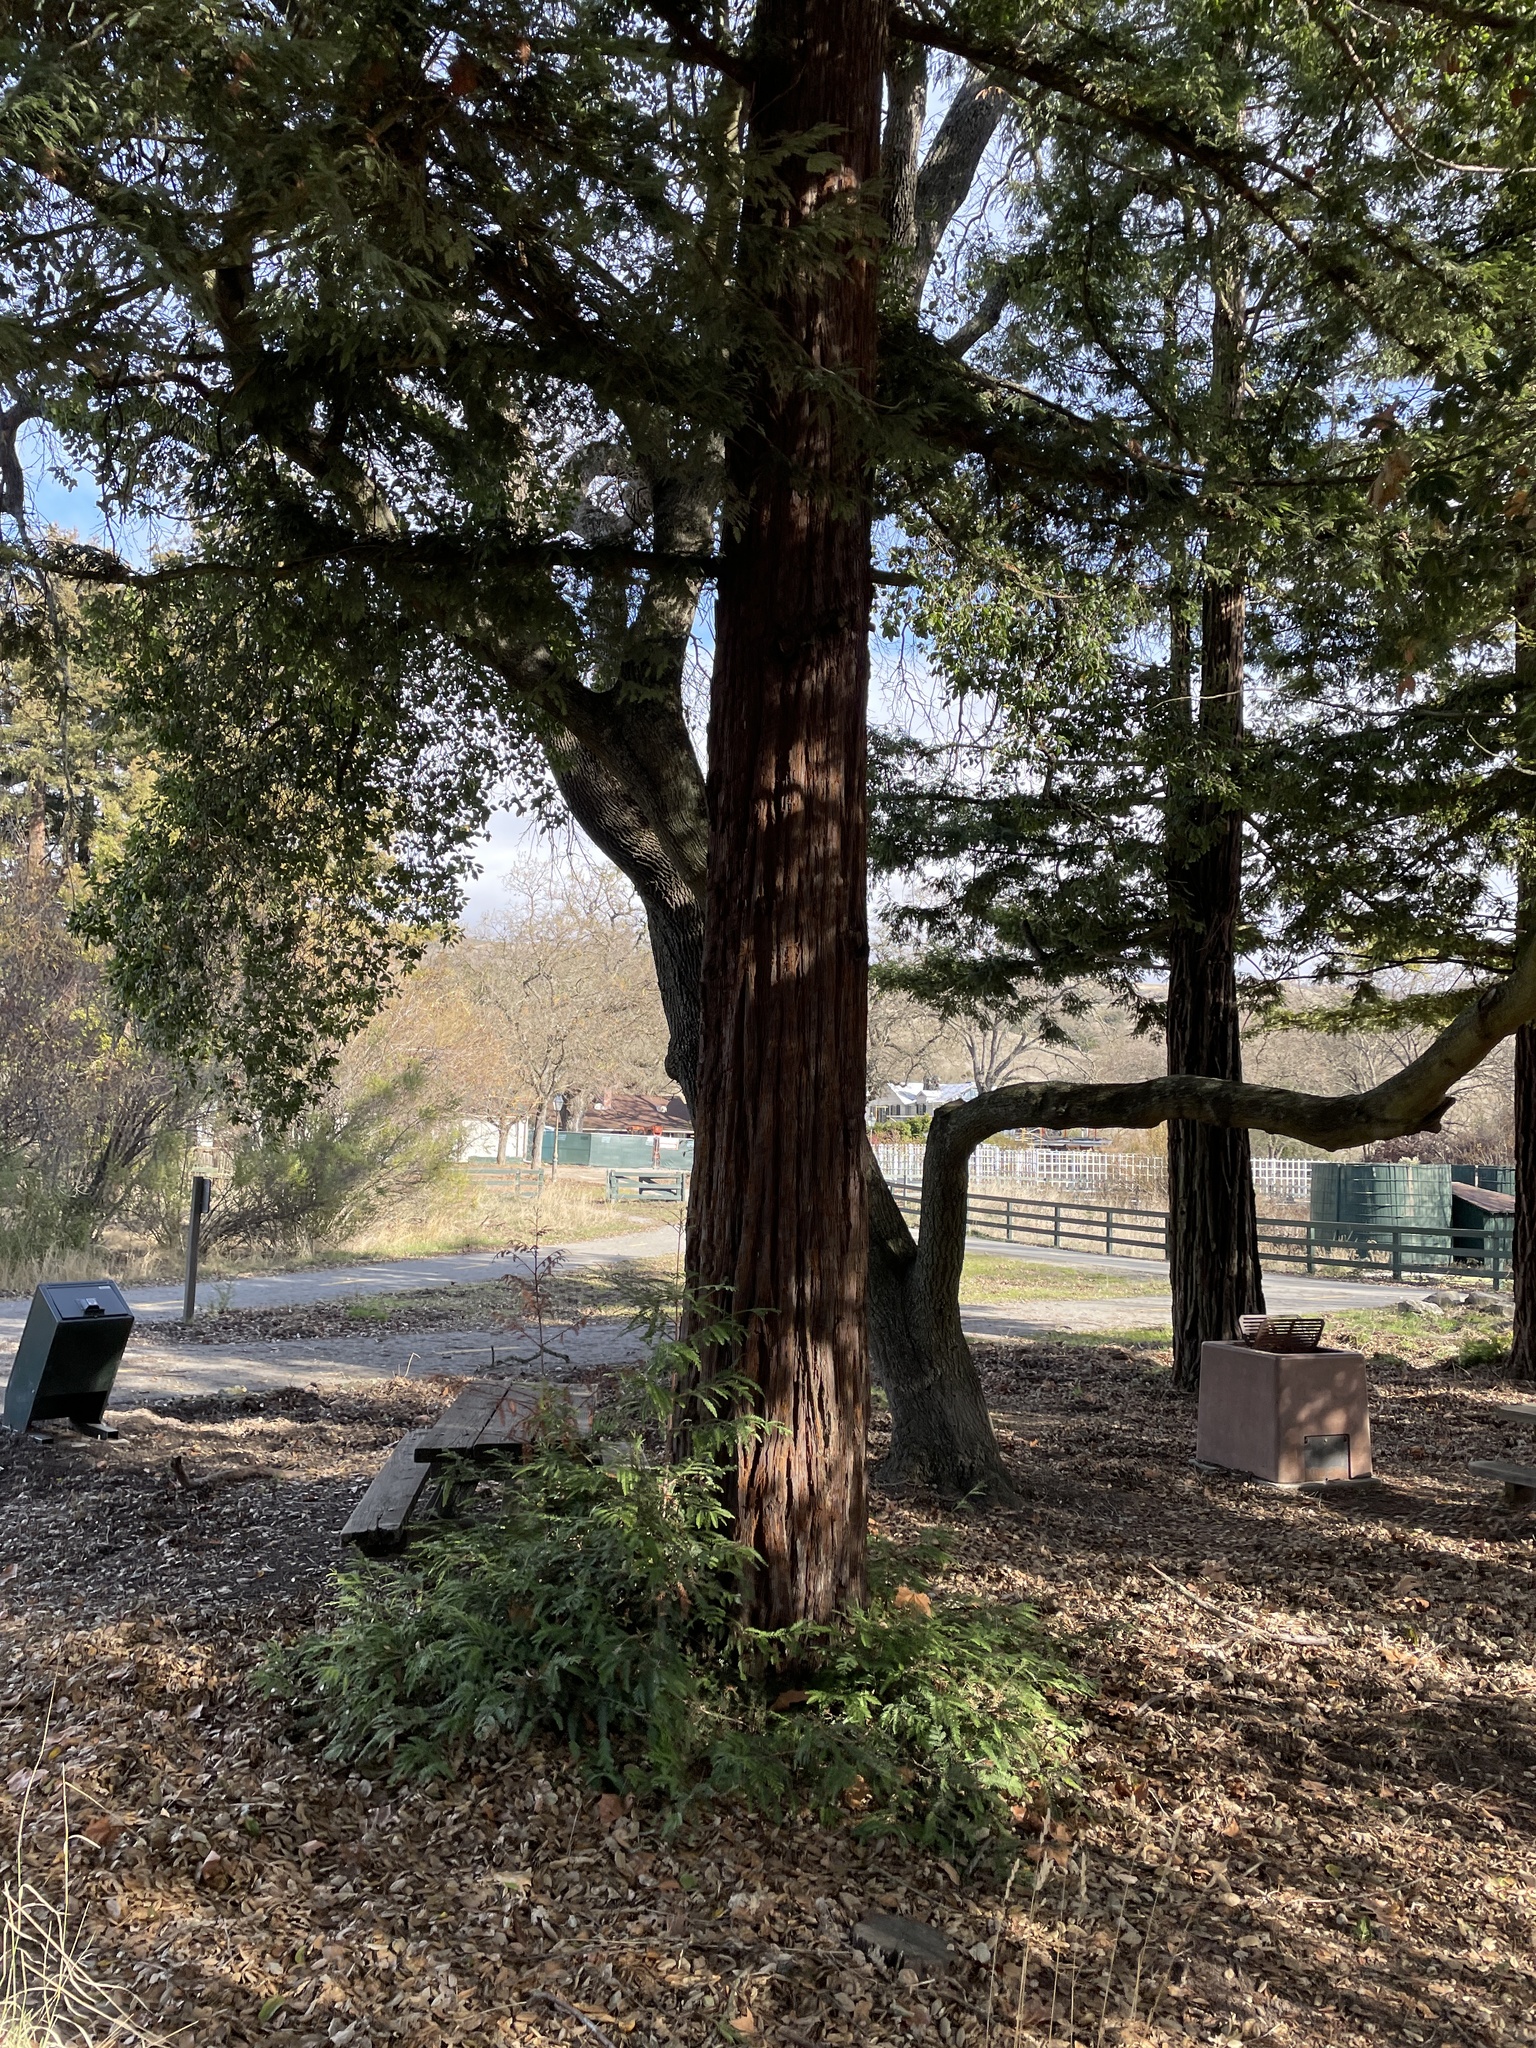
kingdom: Plantae
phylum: Tracheophyta
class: Pinopsida
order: Pinales
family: Cupressaceae
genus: Sequoia
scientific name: Sequoia sempervirens
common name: Coast redwood
